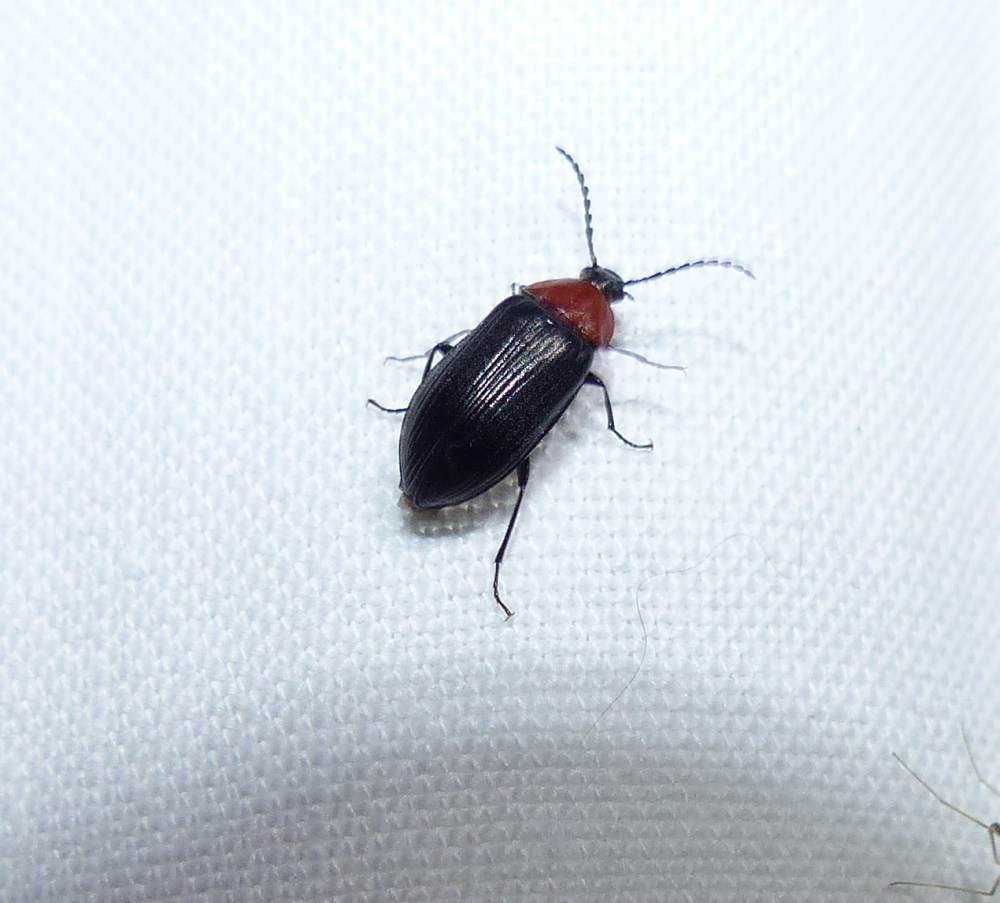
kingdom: Animalia
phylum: Arthropoda
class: Insecta
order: Coleoptera
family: Tenebrionidae
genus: Chromatia
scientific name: Chromatia amoena
